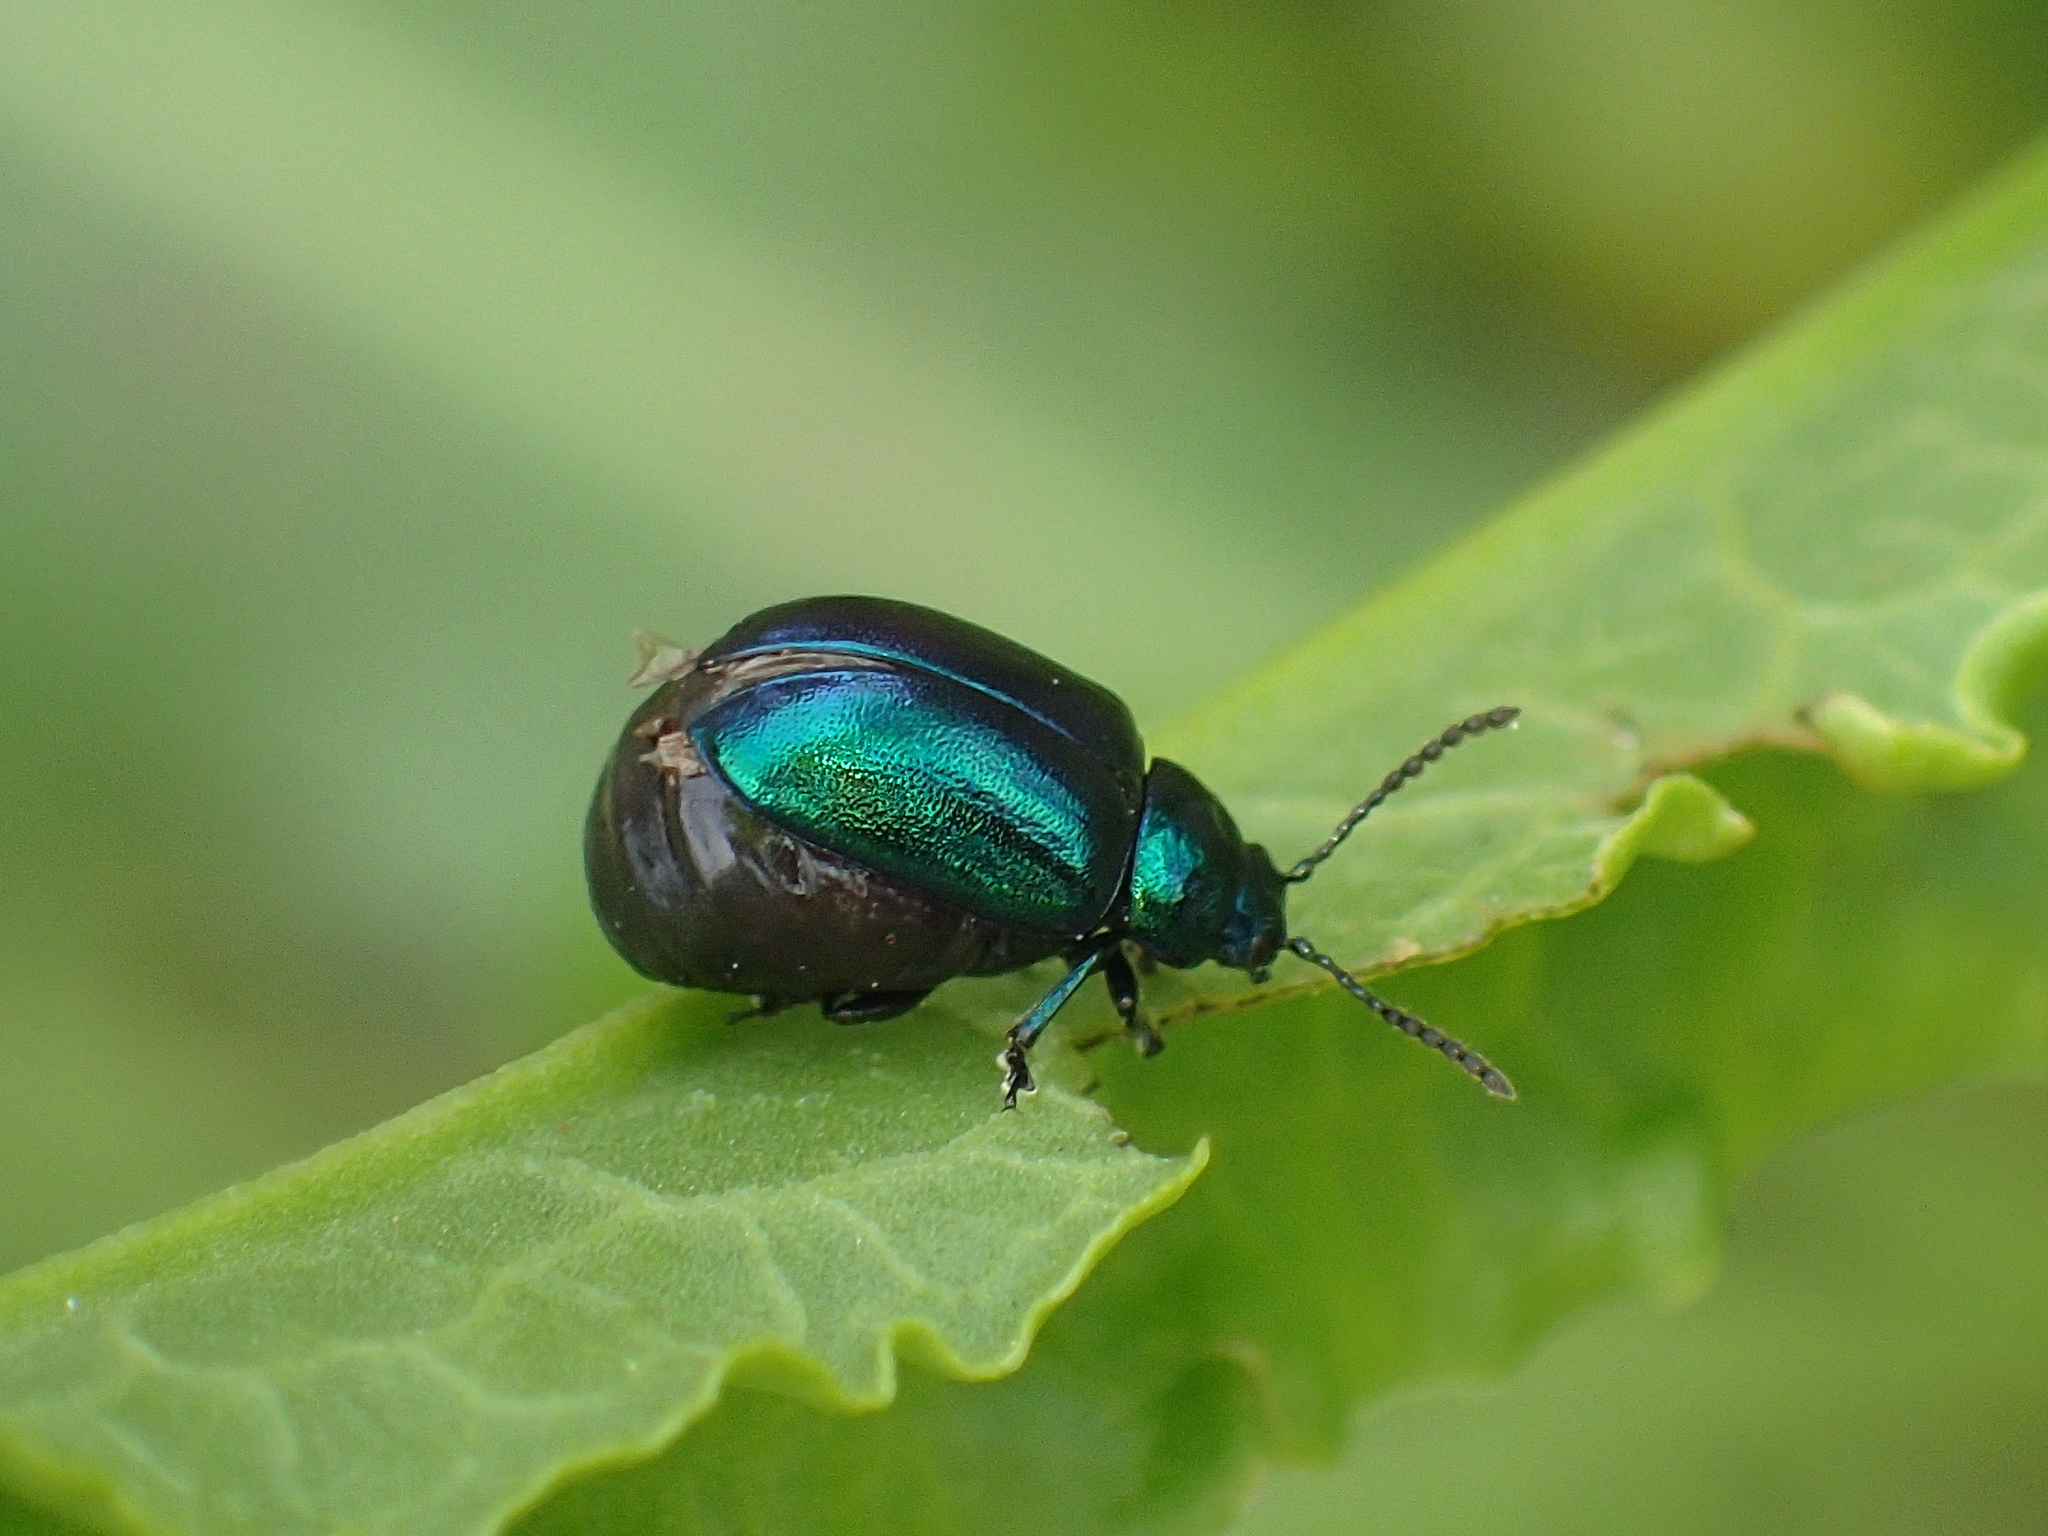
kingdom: Animalia
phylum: Arthropoda
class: Insecta
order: Coleoptera
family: Chrysomelidae
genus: Gastrophysa
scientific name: Gastrophysa cyanea
